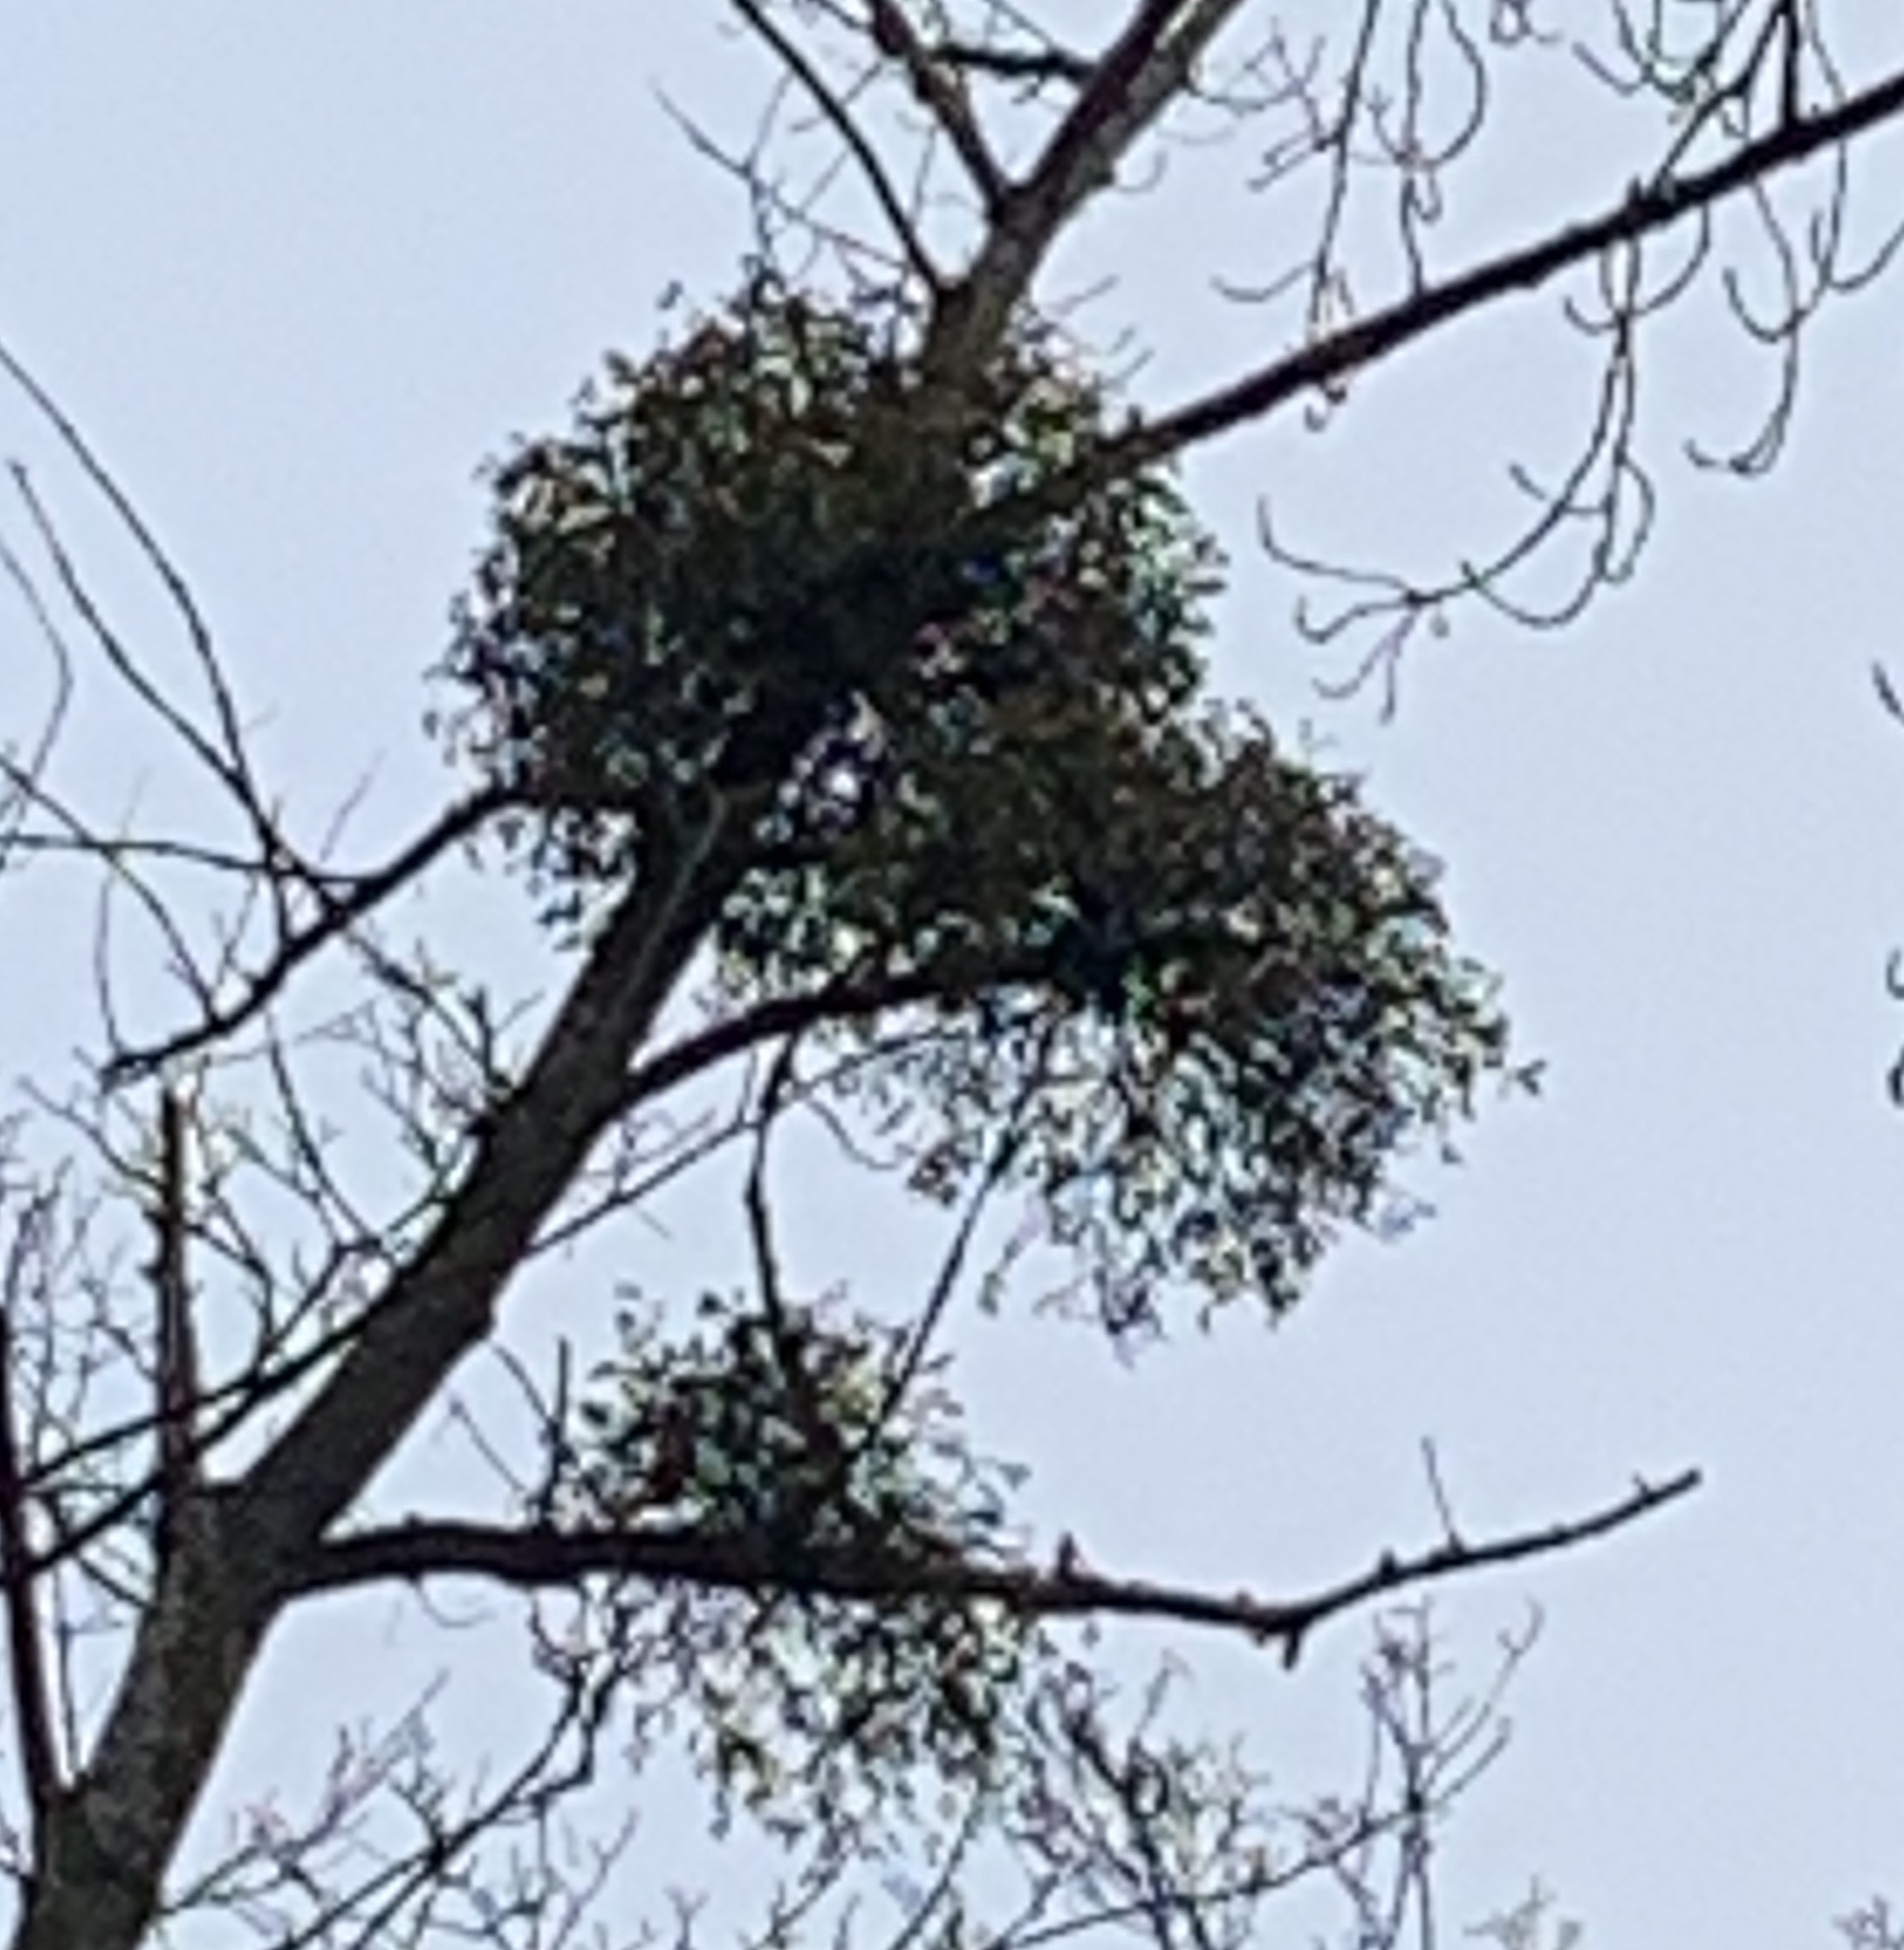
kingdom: Plantae
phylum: Tracheophyta
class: Magnoliopsida
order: Santalales
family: Viscaceae
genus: Viscum
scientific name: Viscum album
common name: Mistletoe
